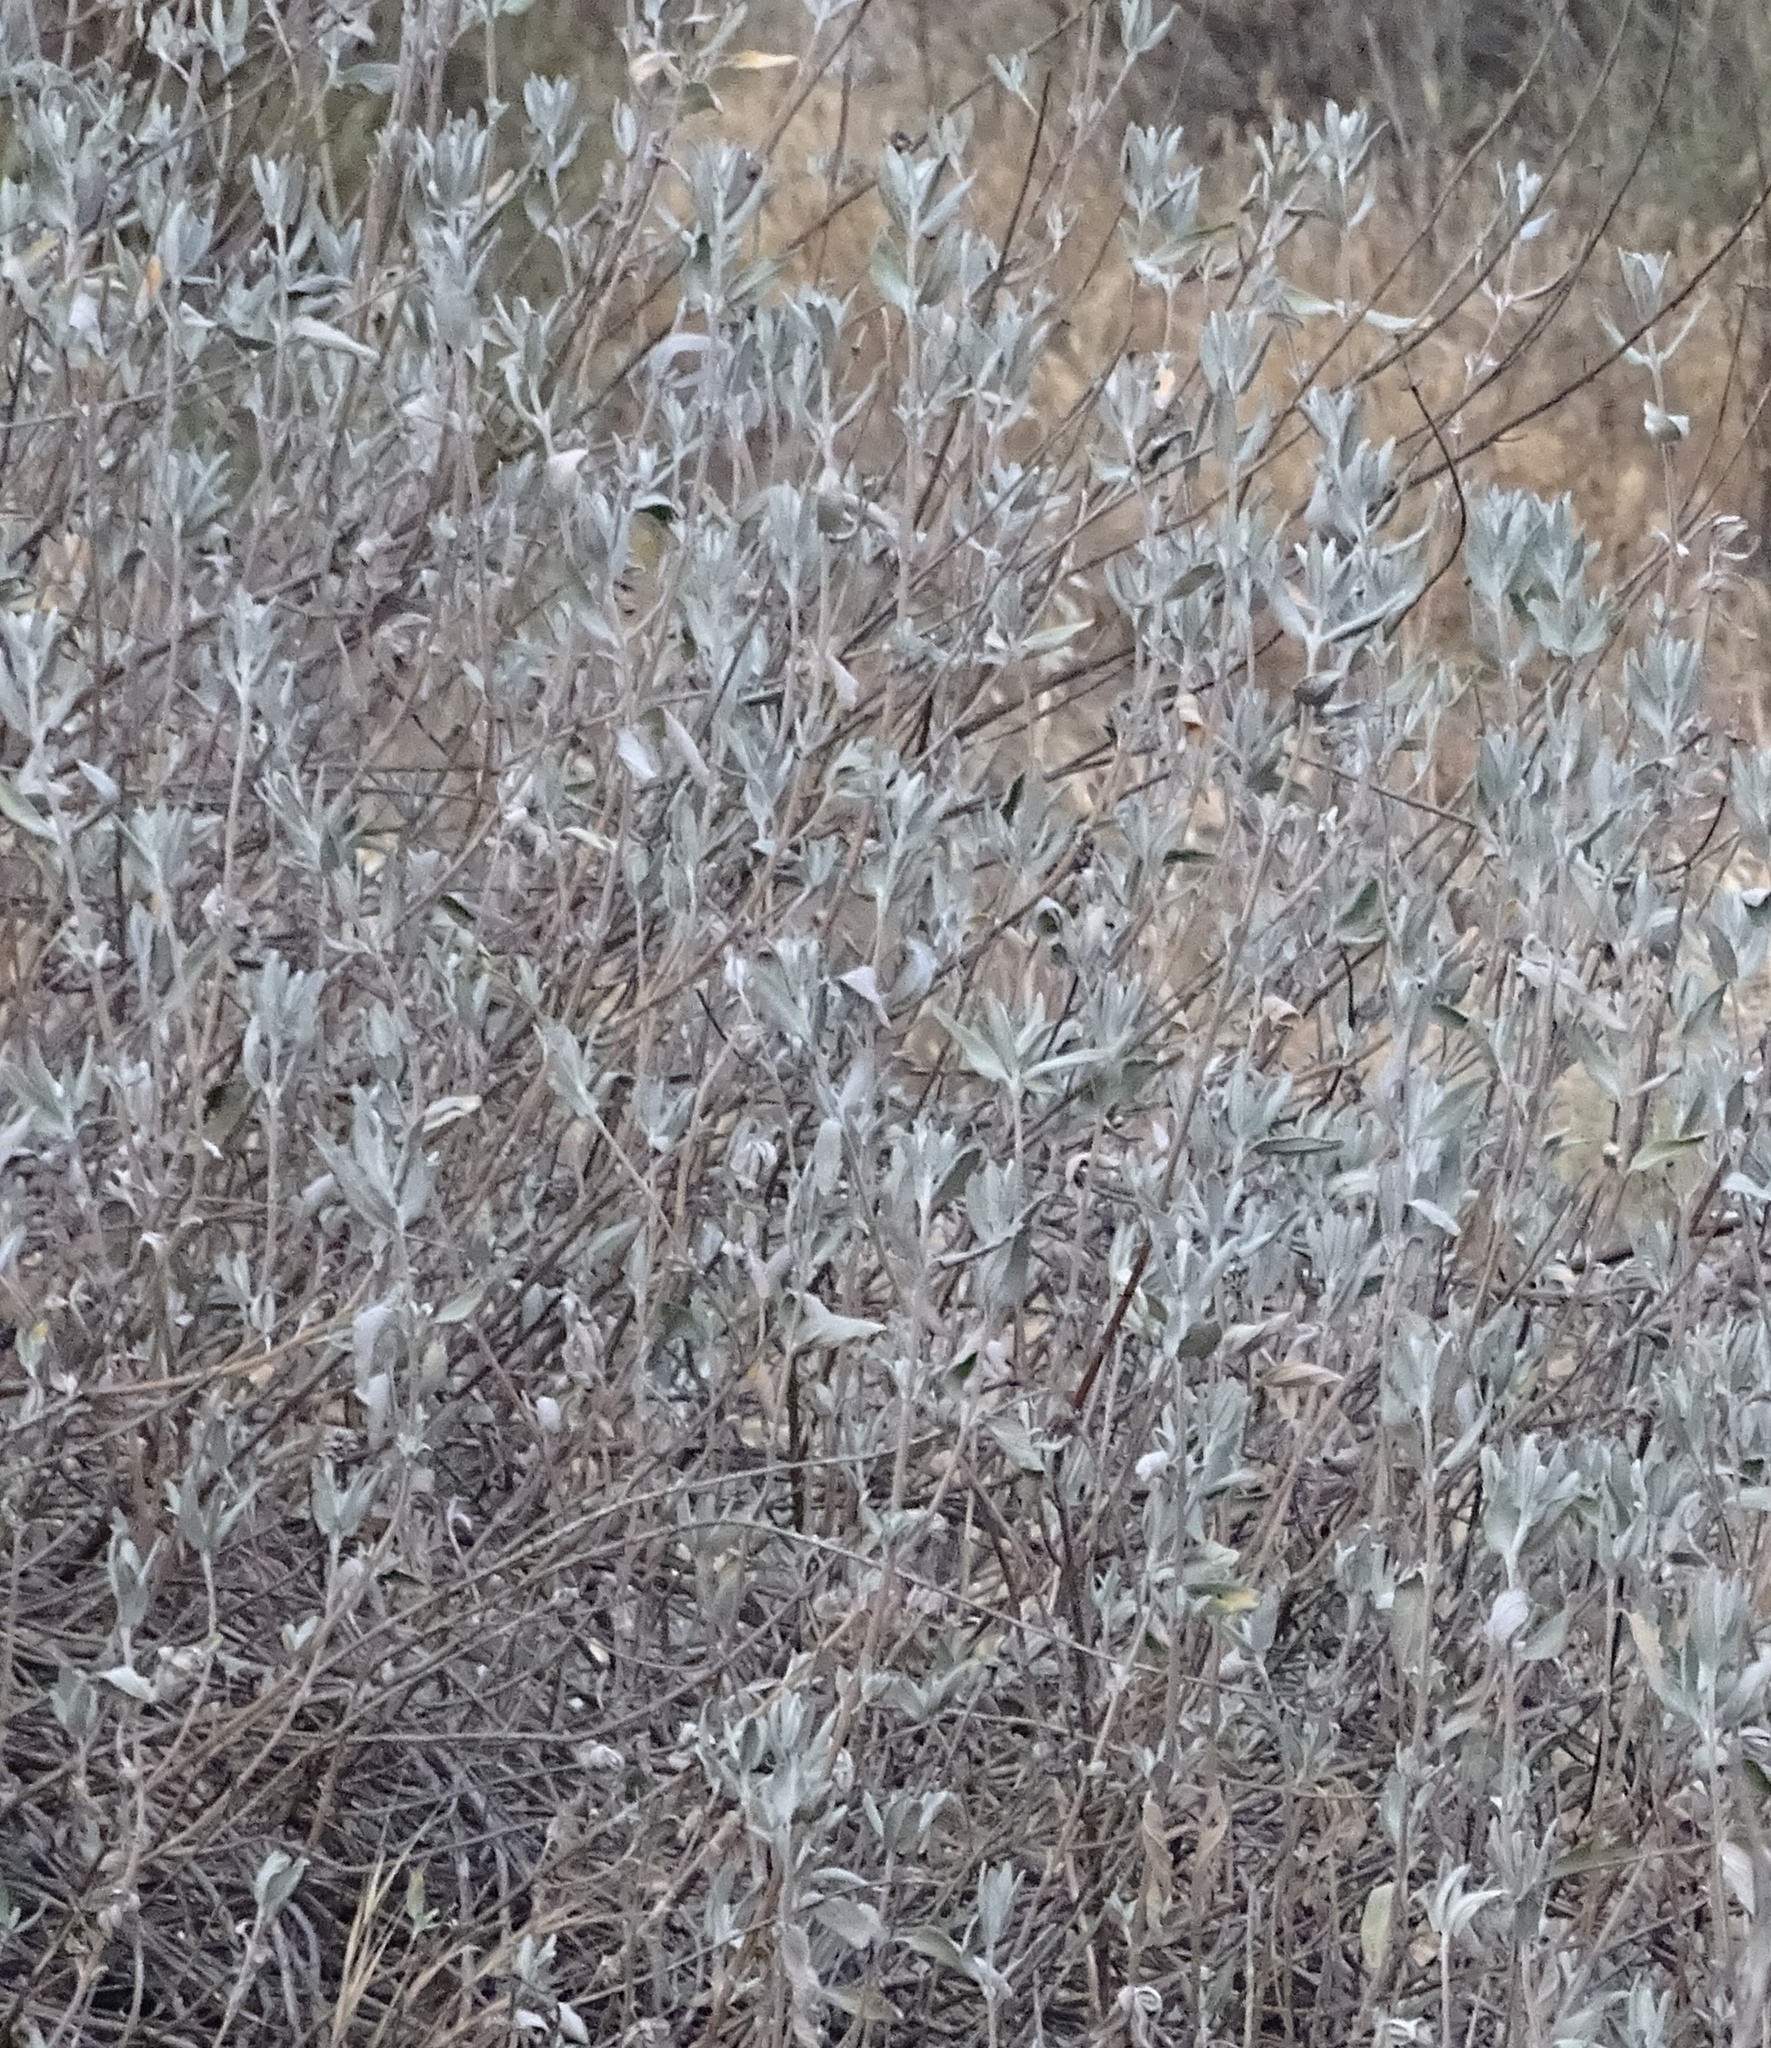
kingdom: Plantae
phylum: Tracheophyta
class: Magnoliopsida
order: Lamiales
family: Lamiaceae
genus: Salvia
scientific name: Salvia leucophylla
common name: Purple sage
